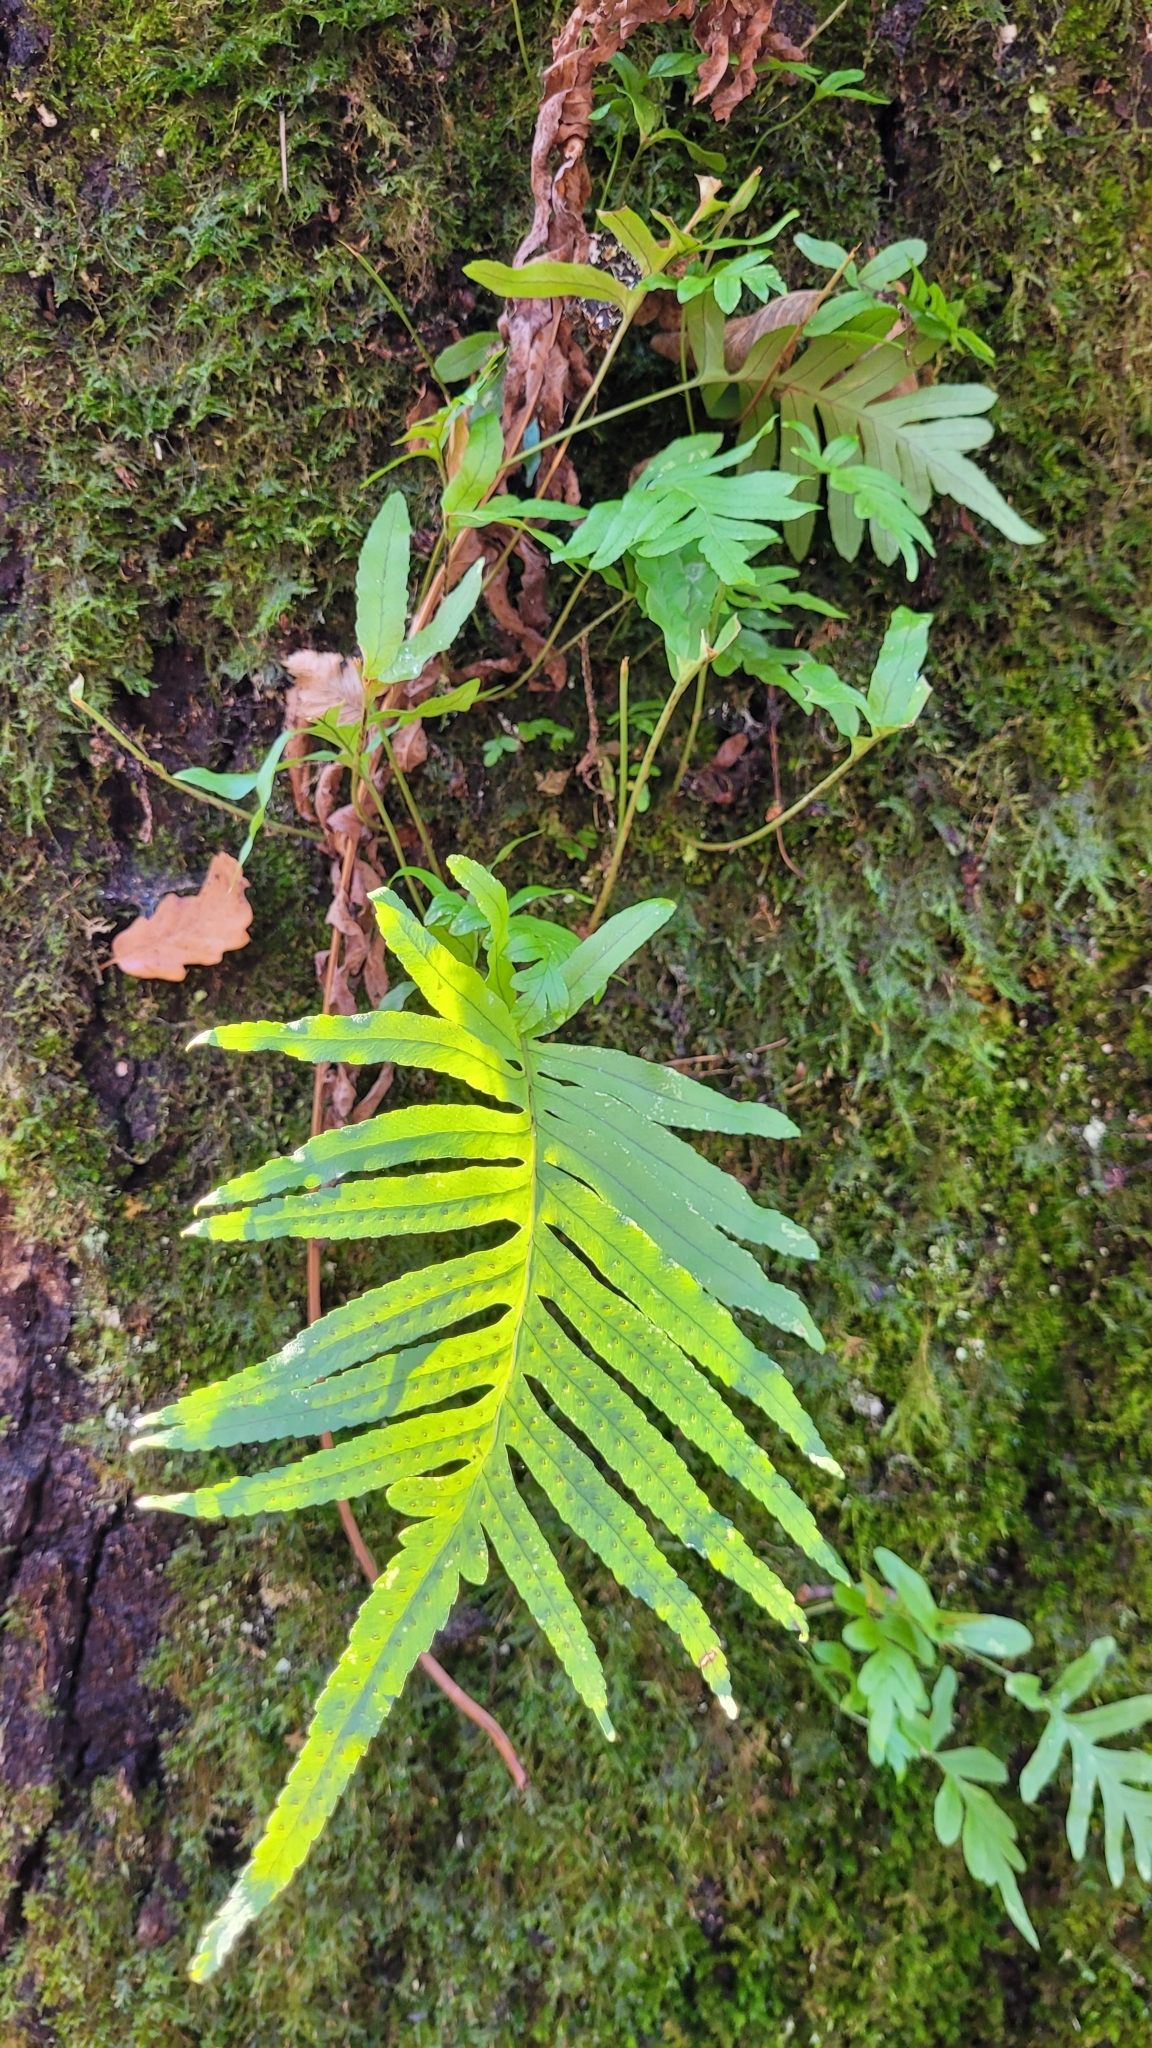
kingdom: Plantae
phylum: Tracheophyta
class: Polypodiopsida
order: Polypodiales
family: Polypodiaceae
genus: Polypodium
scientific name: Polypodium cambricum
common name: Southern polypody
